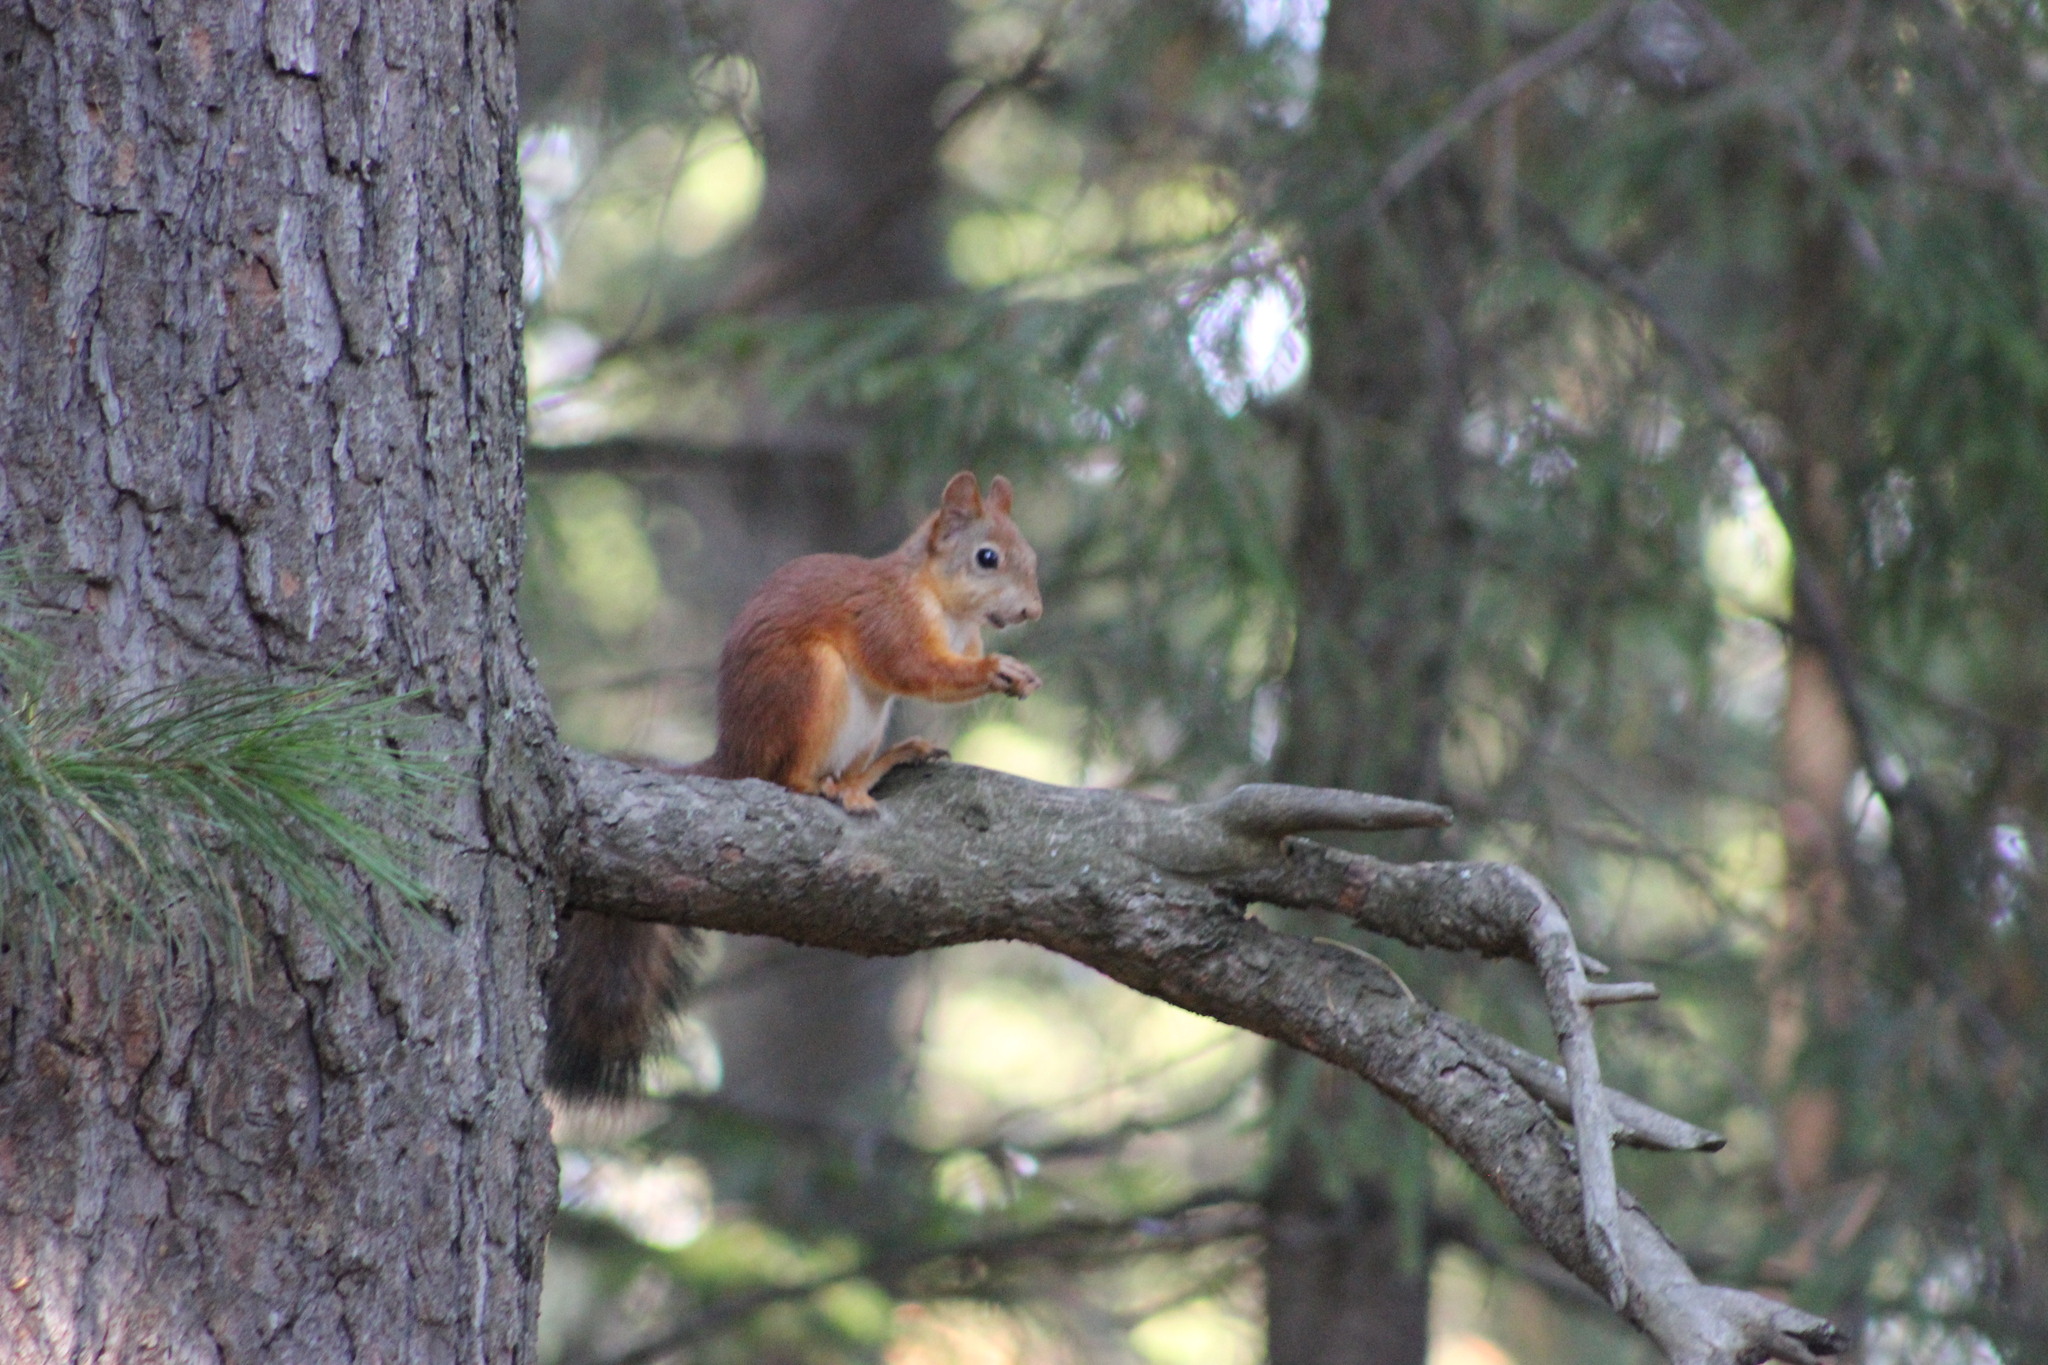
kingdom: Animalia
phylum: Chordata
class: Mammalia
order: Rodentia
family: Sciuridae
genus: Sciurus
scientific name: Sciurus vulgaris
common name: Eurasian red squirrel
